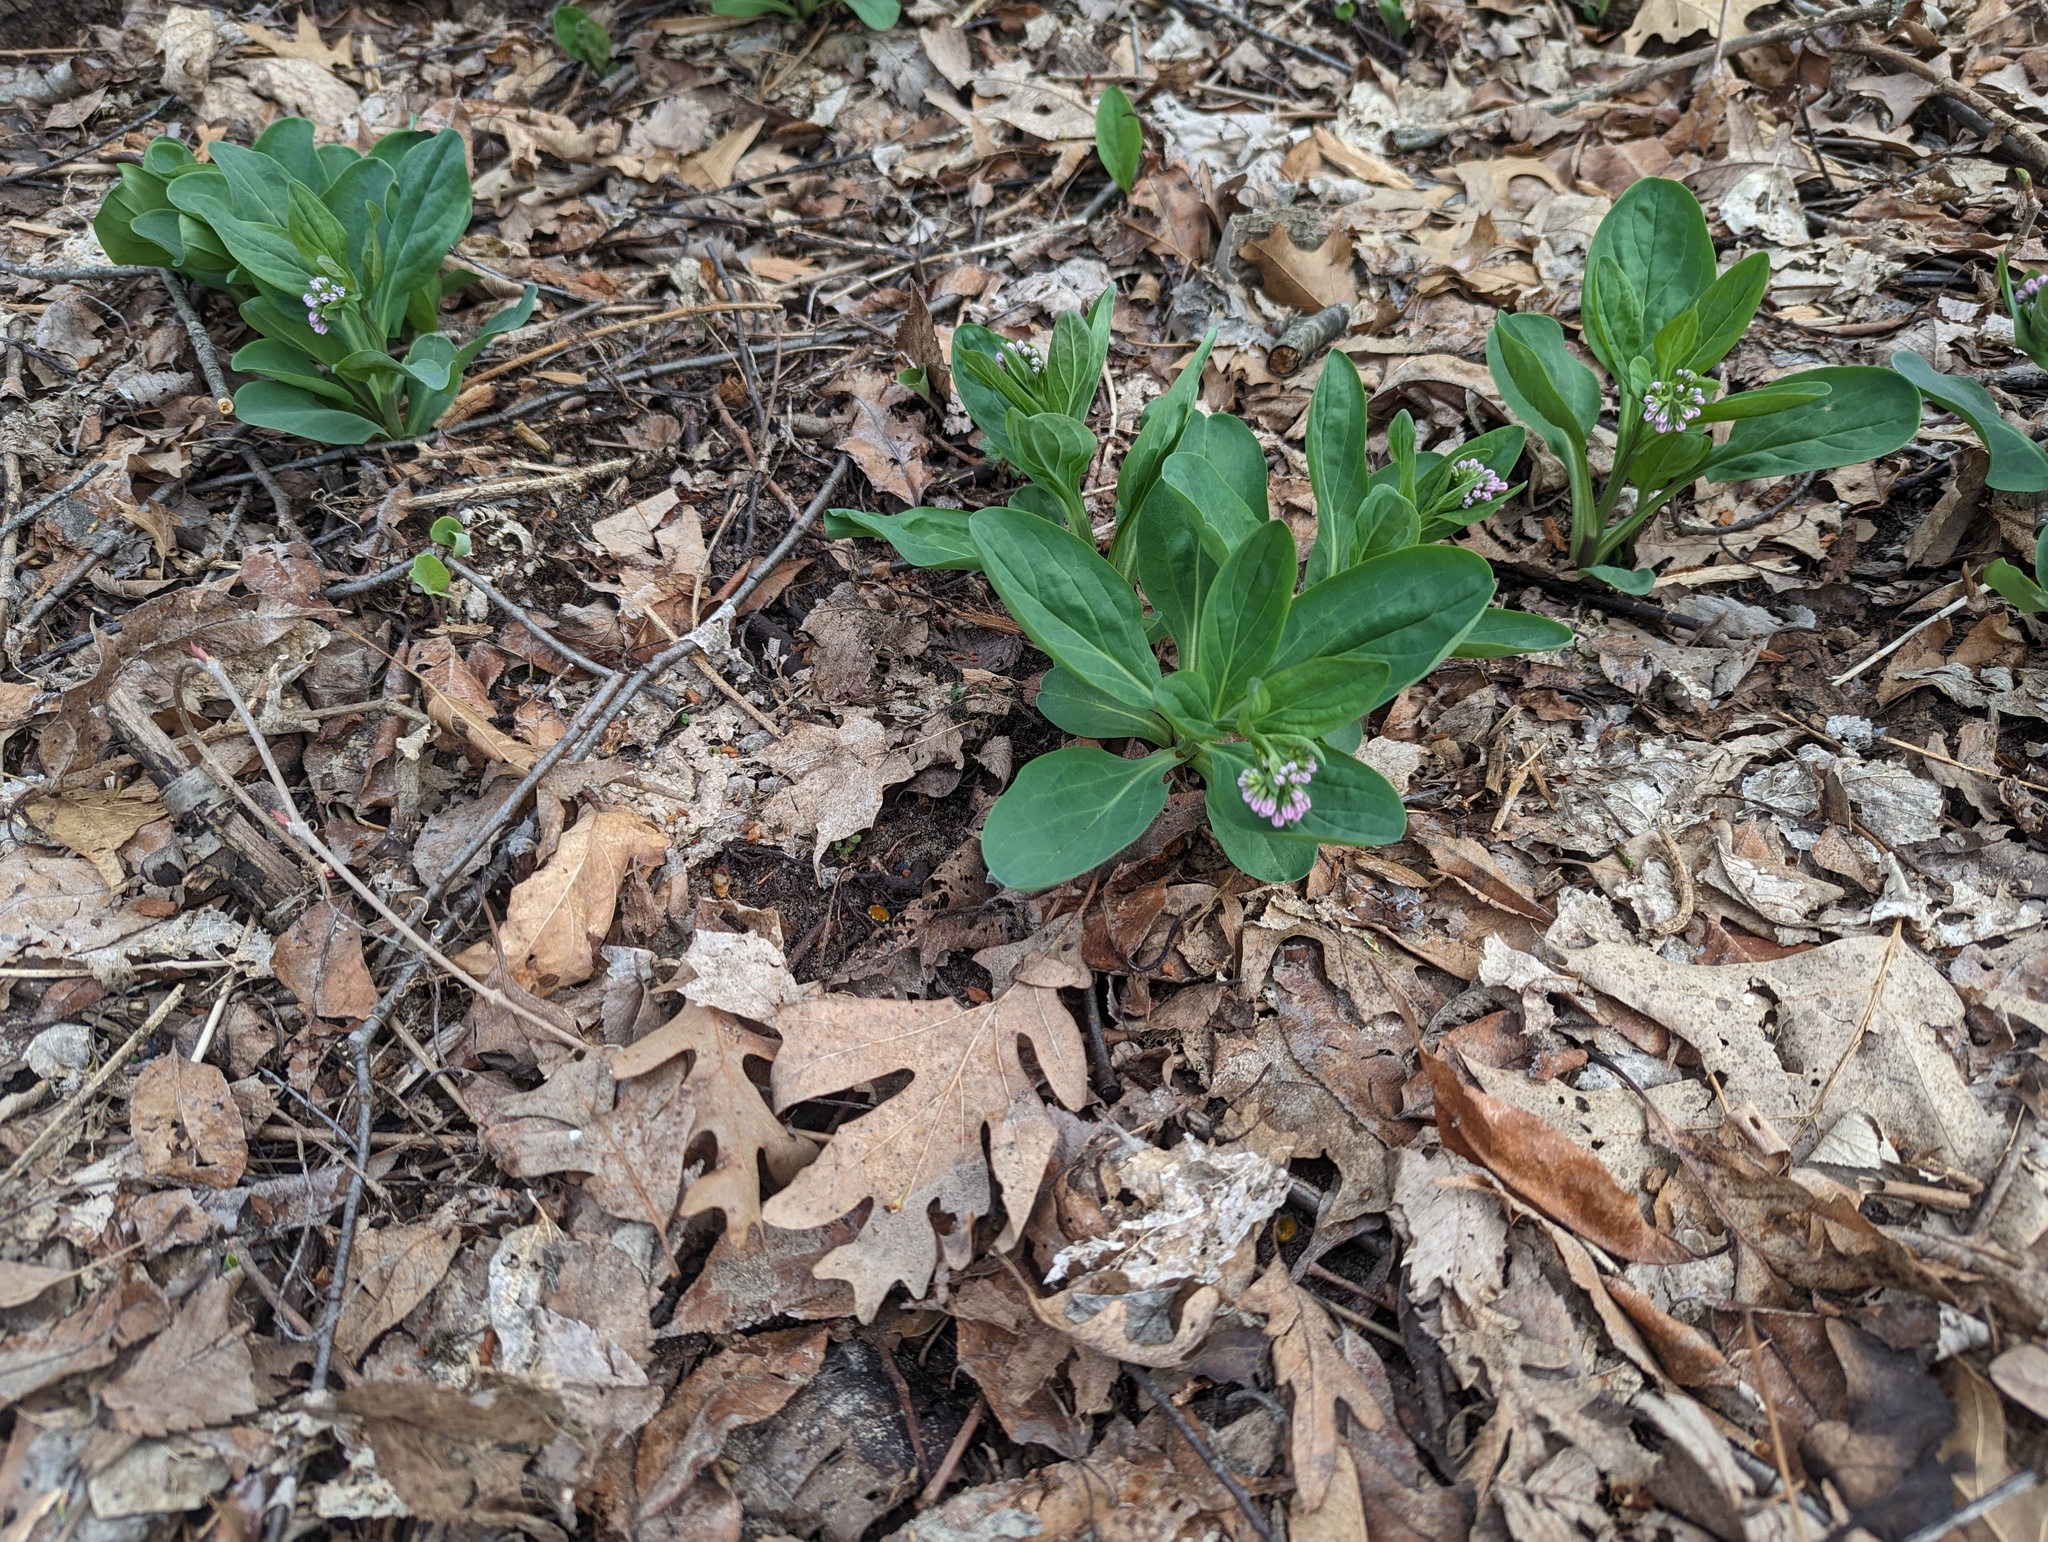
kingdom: Plantae
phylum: Tracheophyta
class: Magnoliopsida
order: Boraginales
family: Boraginaceae
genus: Mertensia
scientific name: Mertensia virginica
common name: Virginia bluebells
